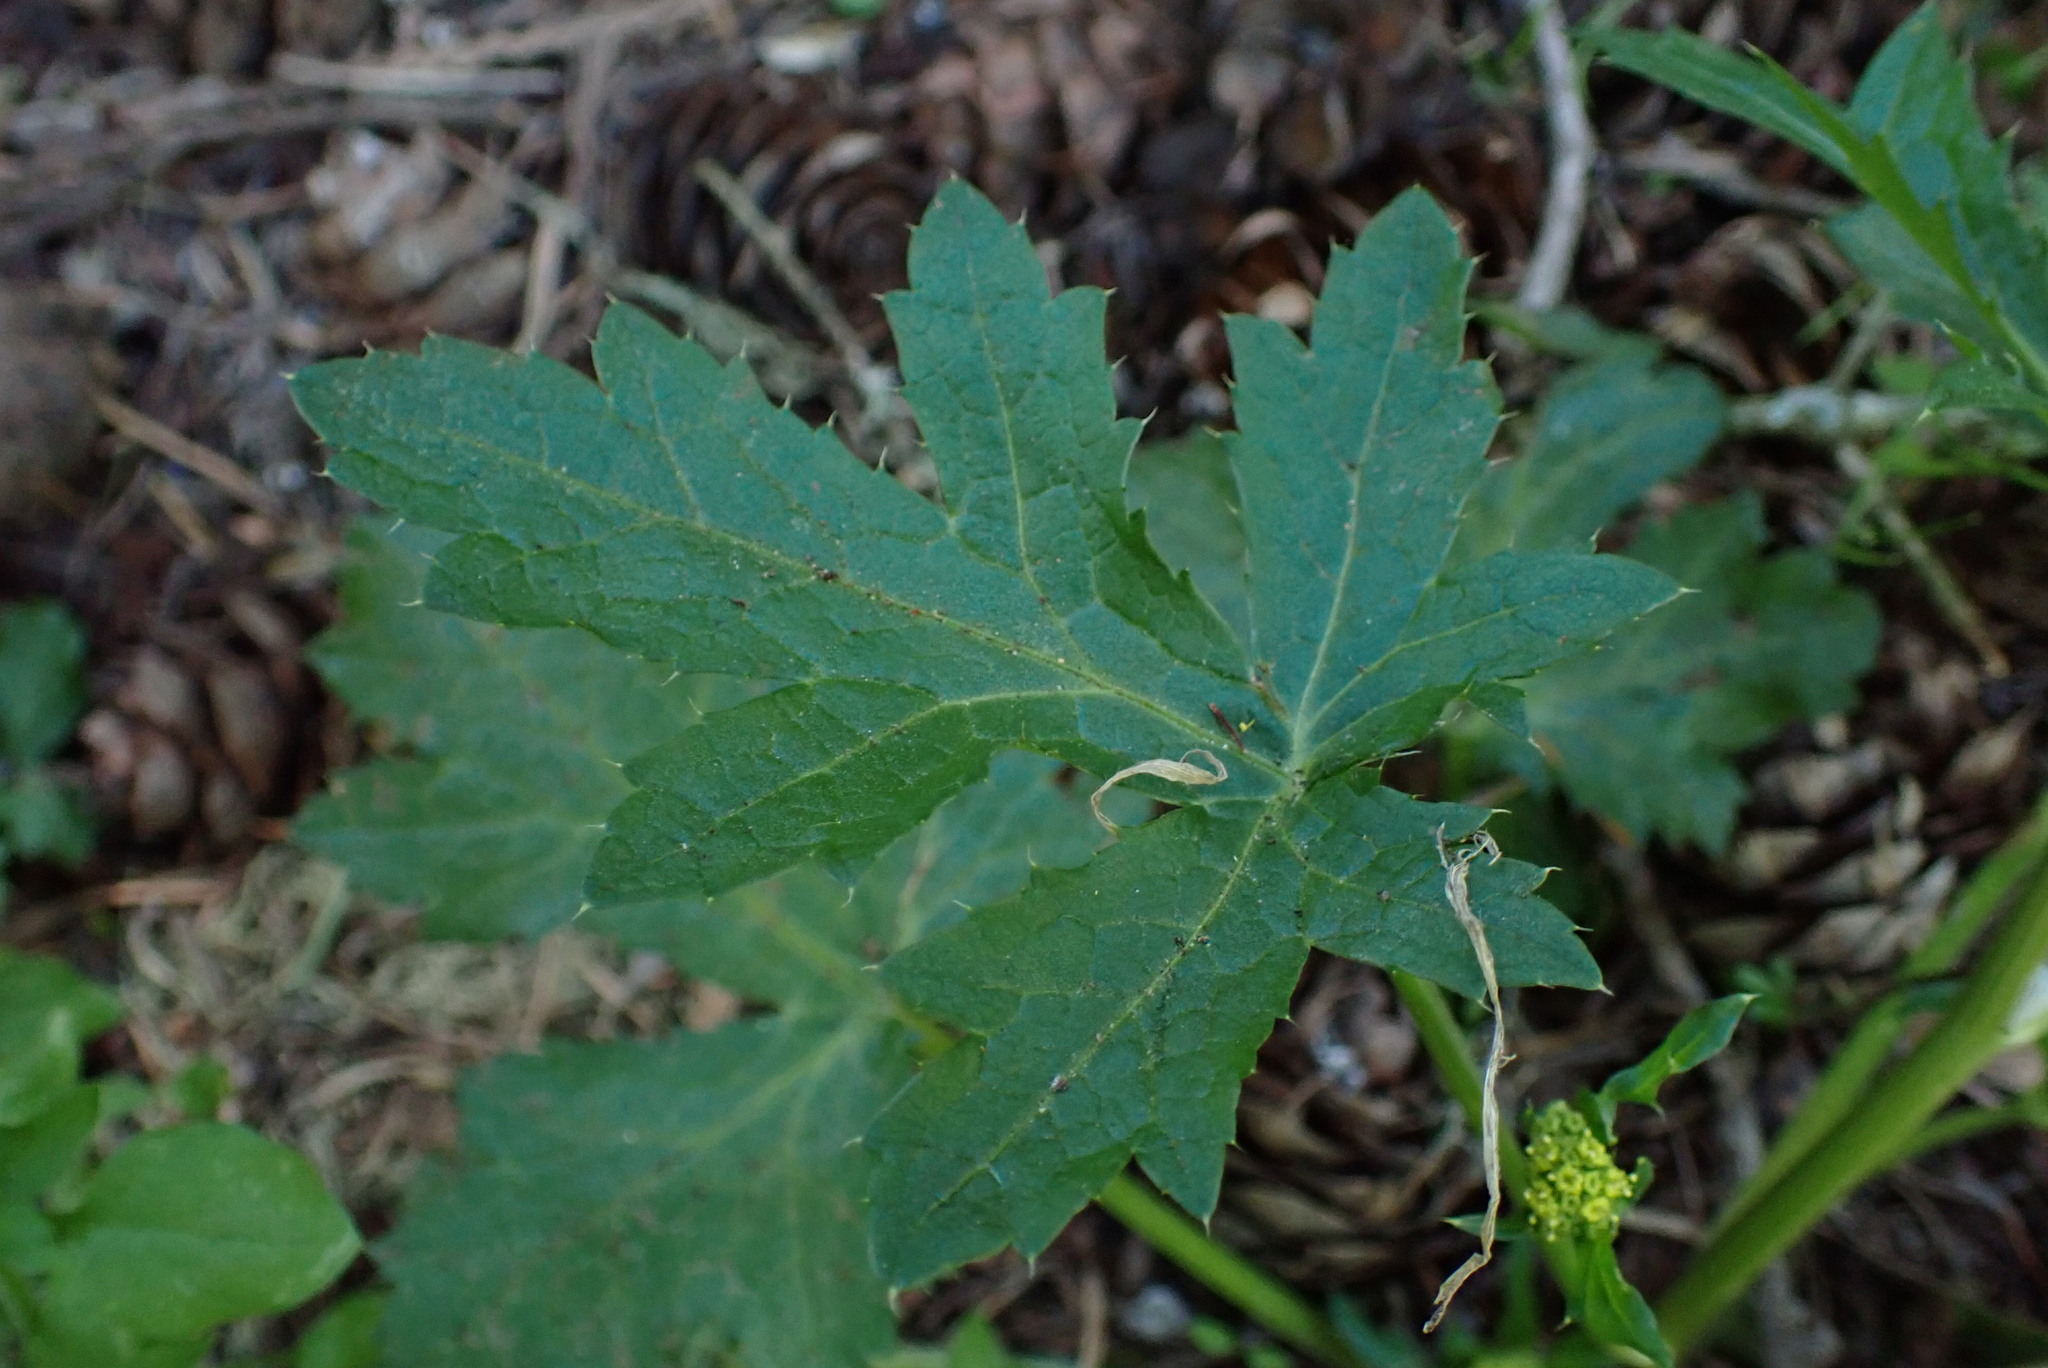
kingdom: Plantae
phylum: Tracheophyta
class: Magnoliopsida
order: Apiales
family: Apiaceae
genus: Sanicula
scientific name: Sanicula crassicaulis
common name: Western snakeroot
